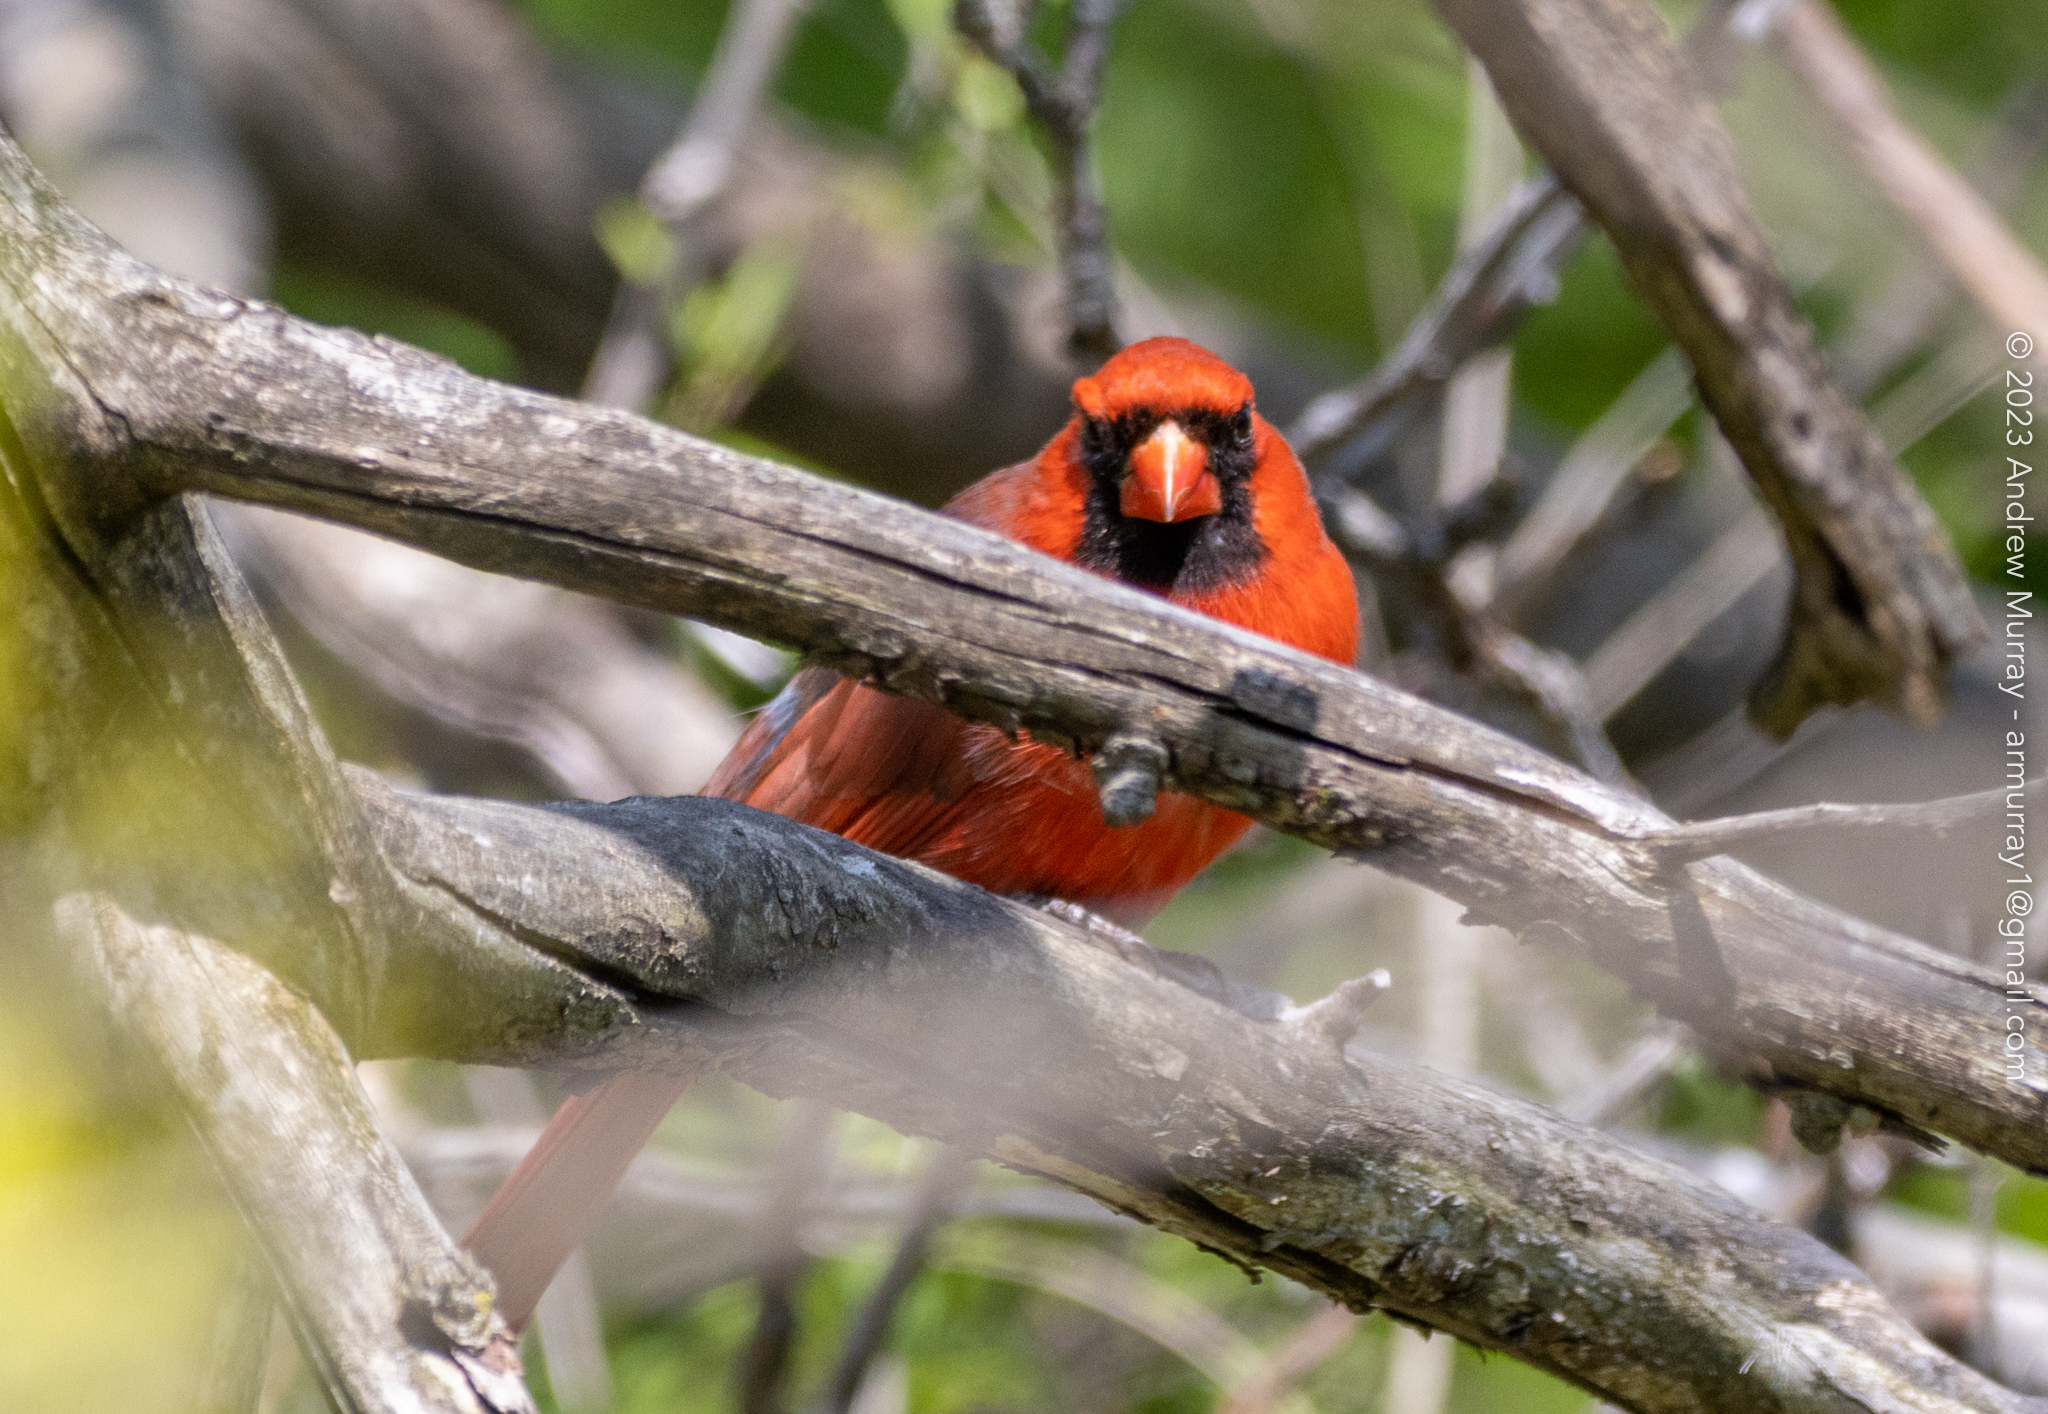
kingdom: Animalia
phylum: Chordata
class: Aves
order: Passeriformes
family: Cardinalidae
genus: Cardinalis
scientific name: Cardinalis cardinalis
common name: Northern cardinal
